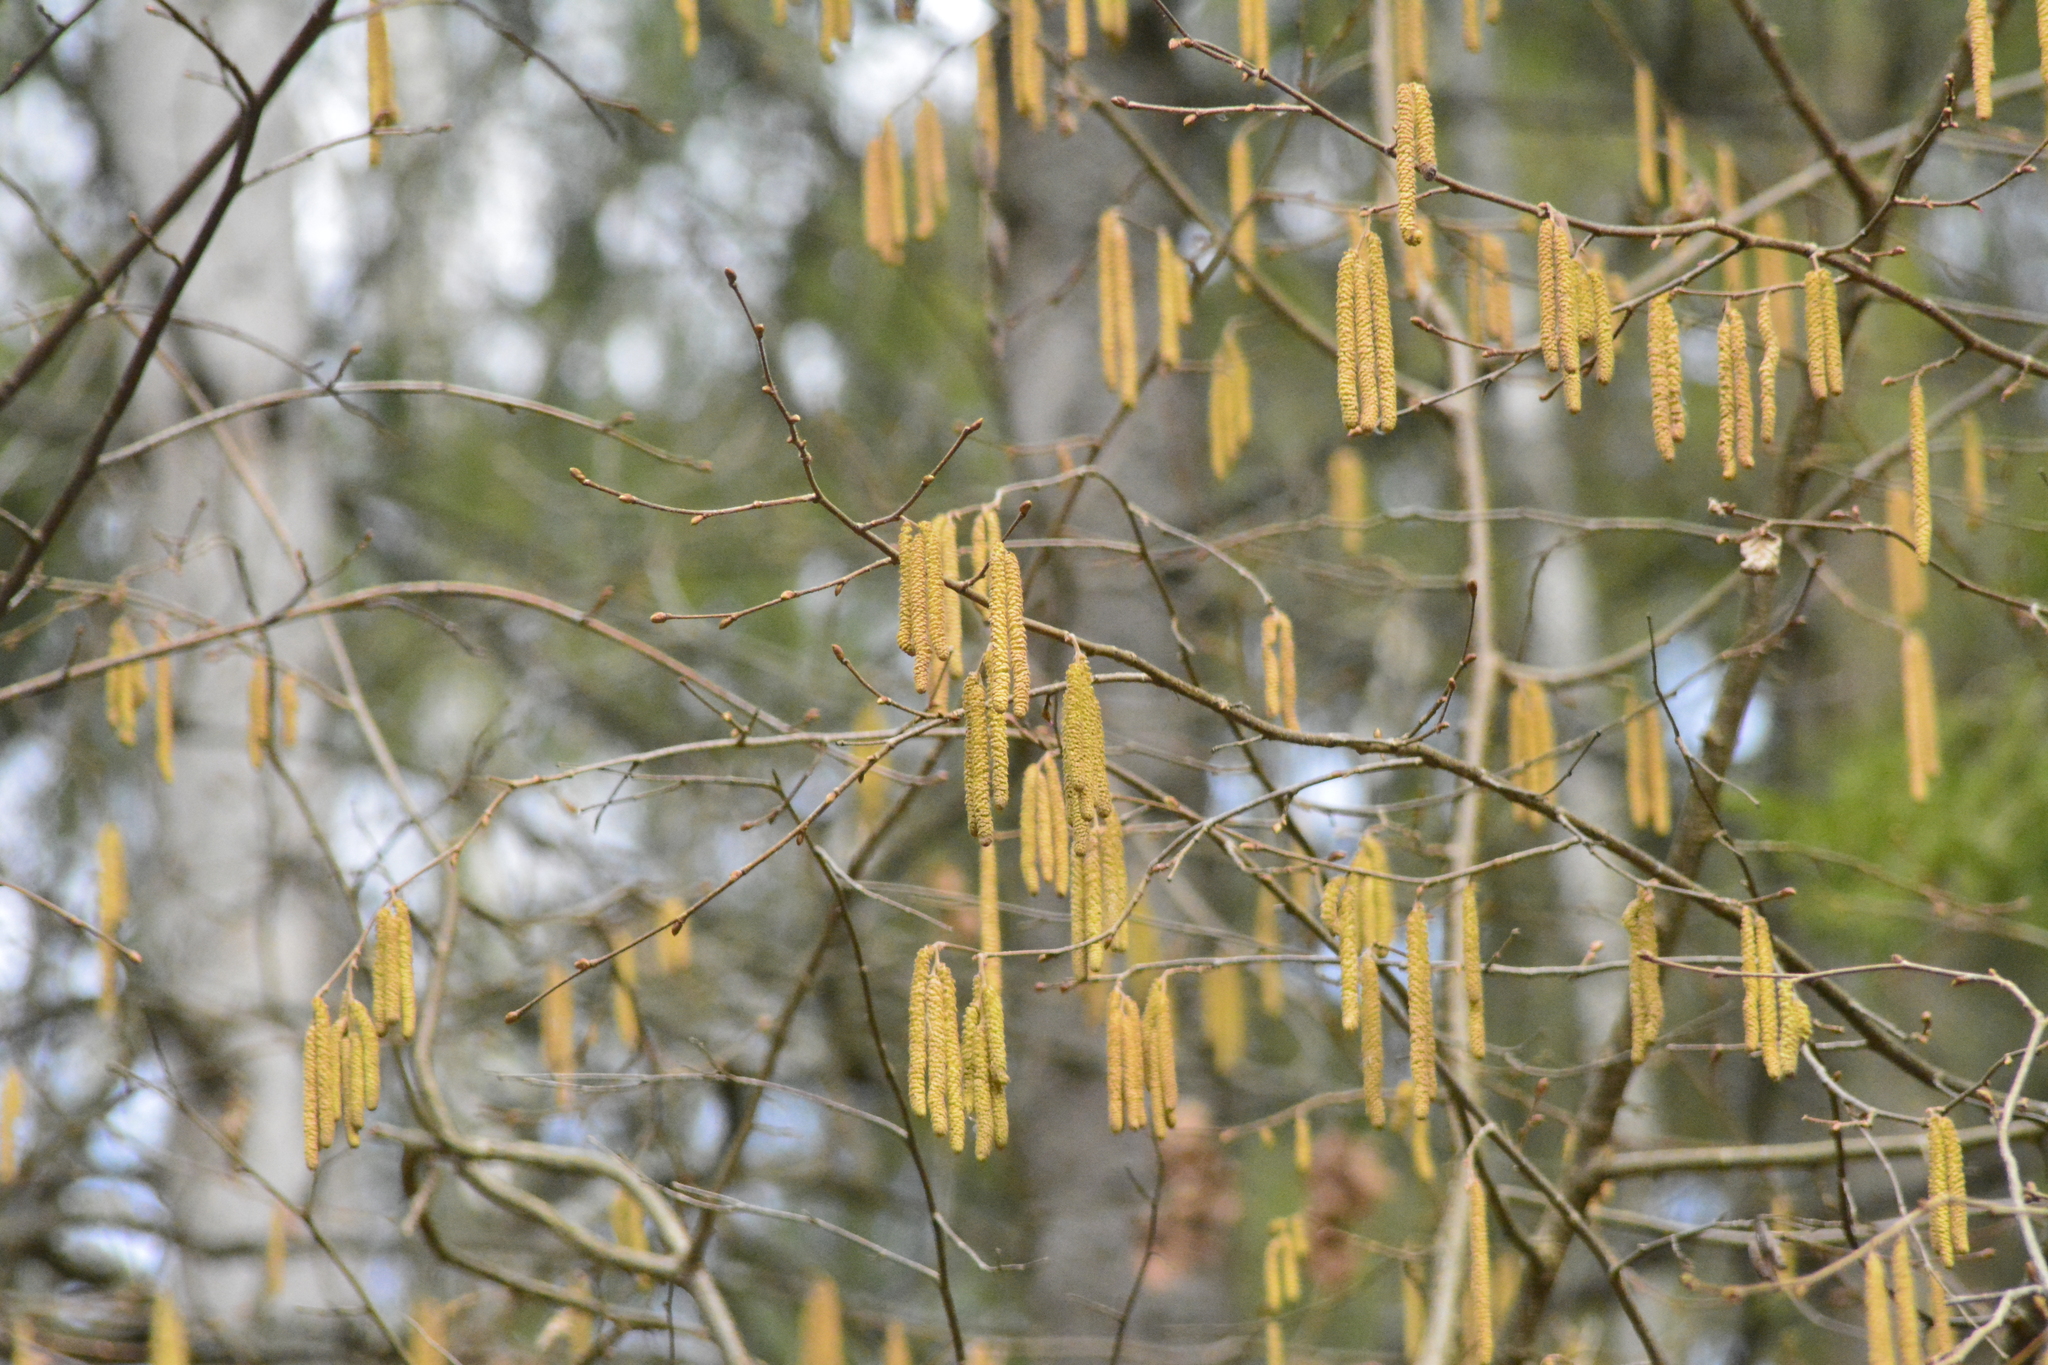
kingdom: Plantae
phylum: Tracheophyta
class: Magnoliopsida
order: Fagales
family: Betulaceae
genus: Corylus
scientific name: Corylus avellana
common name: European hazel
